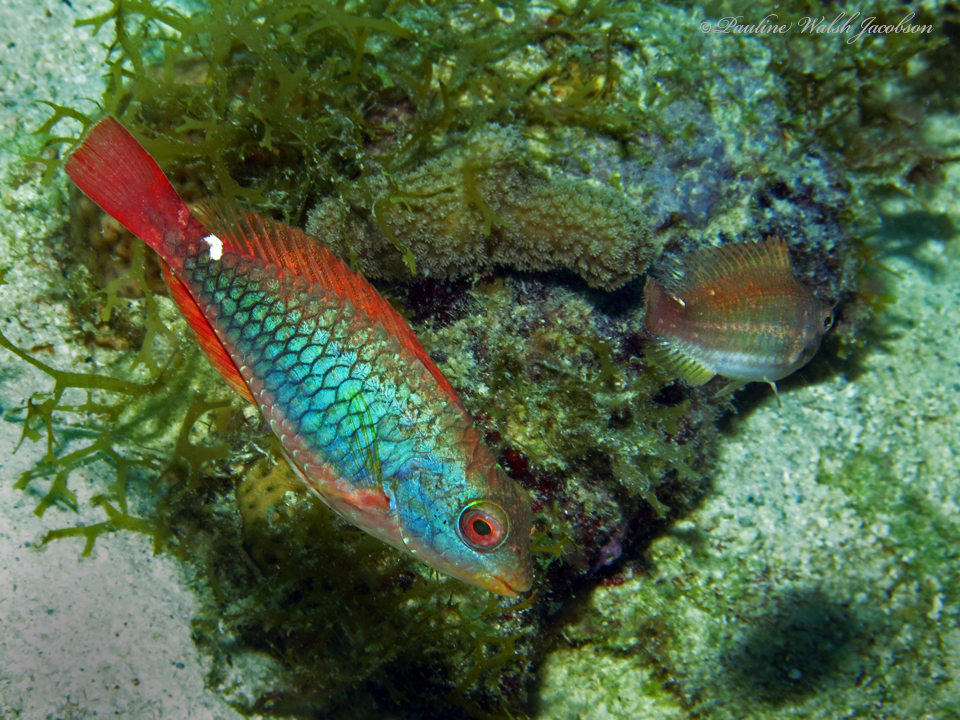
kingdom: Animalia
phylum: Chordata
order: Perciformes
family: Scaridae
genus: Sparisoma
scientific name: Sparisoma aurofrenatum
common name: Redband parrotfish
